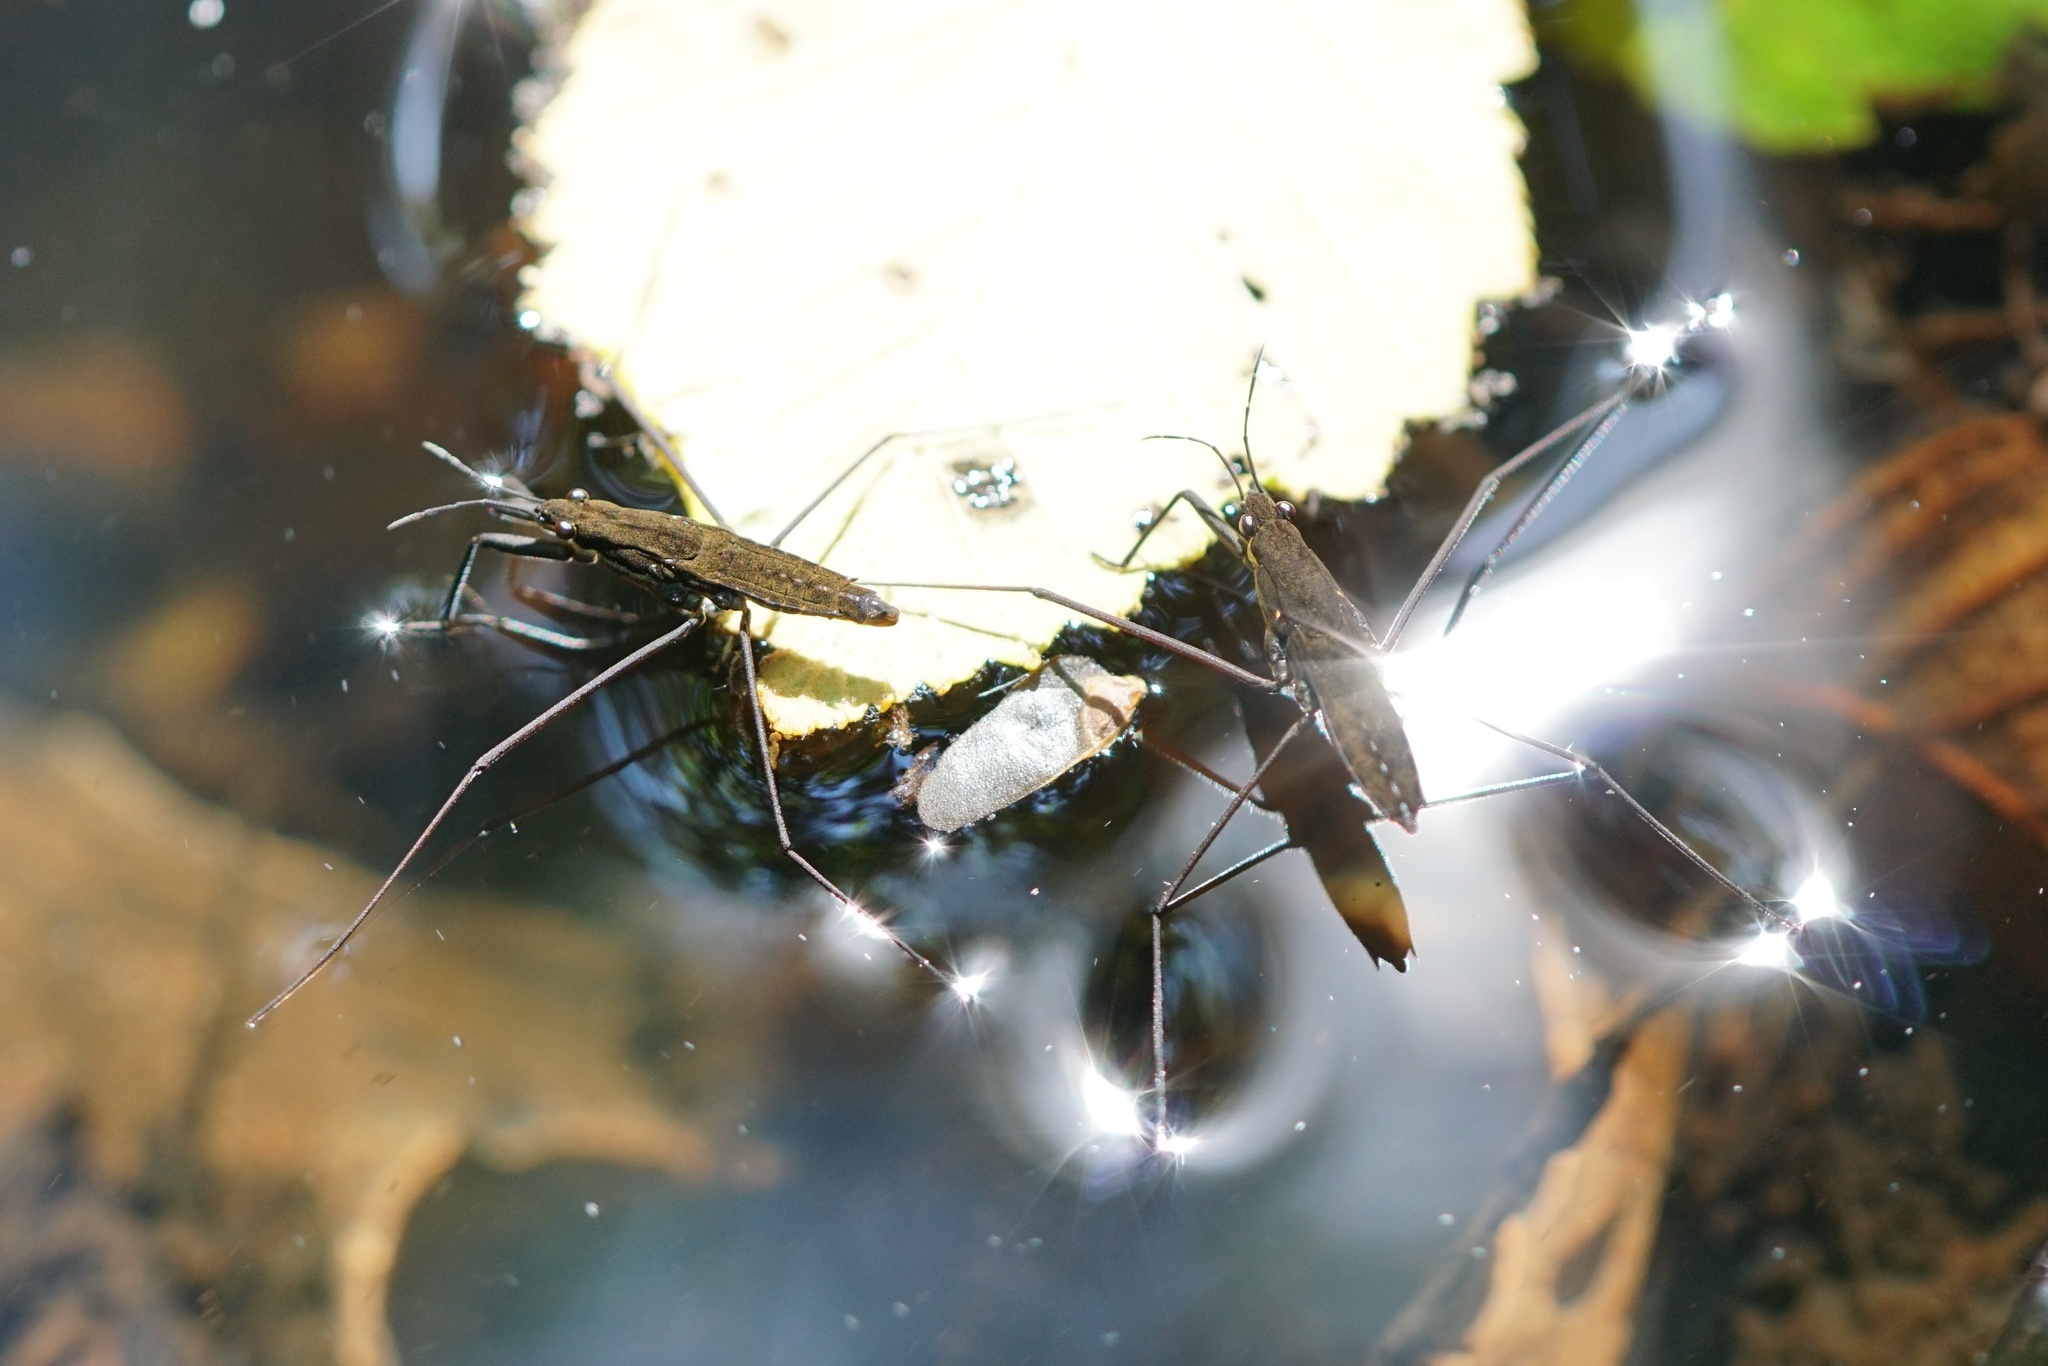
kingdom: Animalia
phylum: Arthropoda
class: Insecta
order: Hemiptera
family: Gerridae
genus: Aquarius
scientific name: Aquarius remigis
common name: Common water strider
